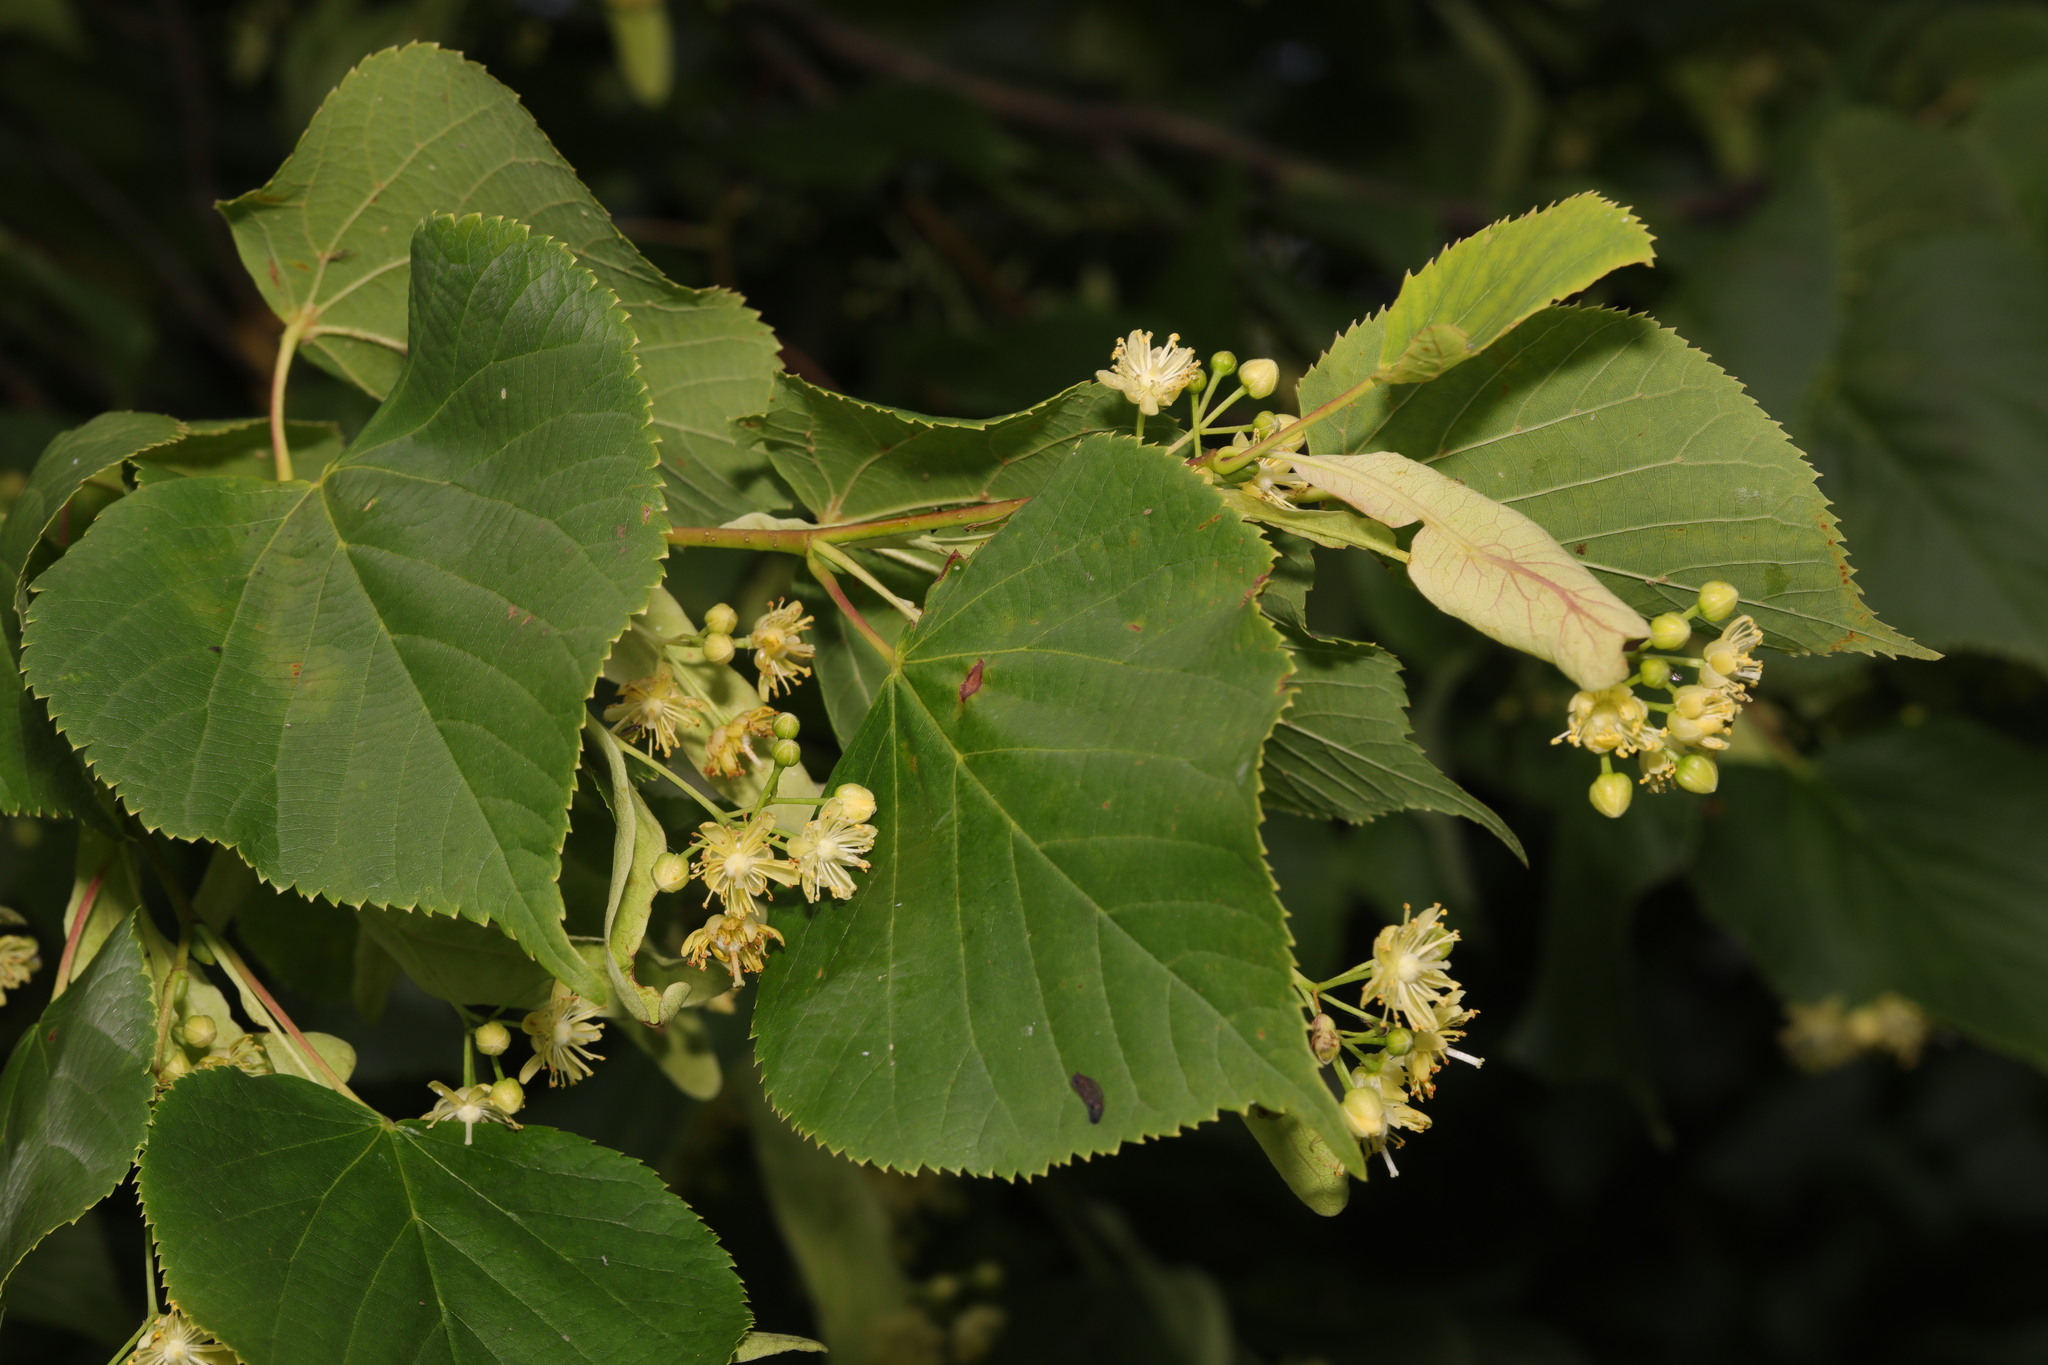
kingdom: Plantae
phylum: Tracheophyta
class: Magnoliopsida
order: Malvales
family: Malvaceae
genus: Tilia
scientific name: Tilia europaea
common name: European linden
